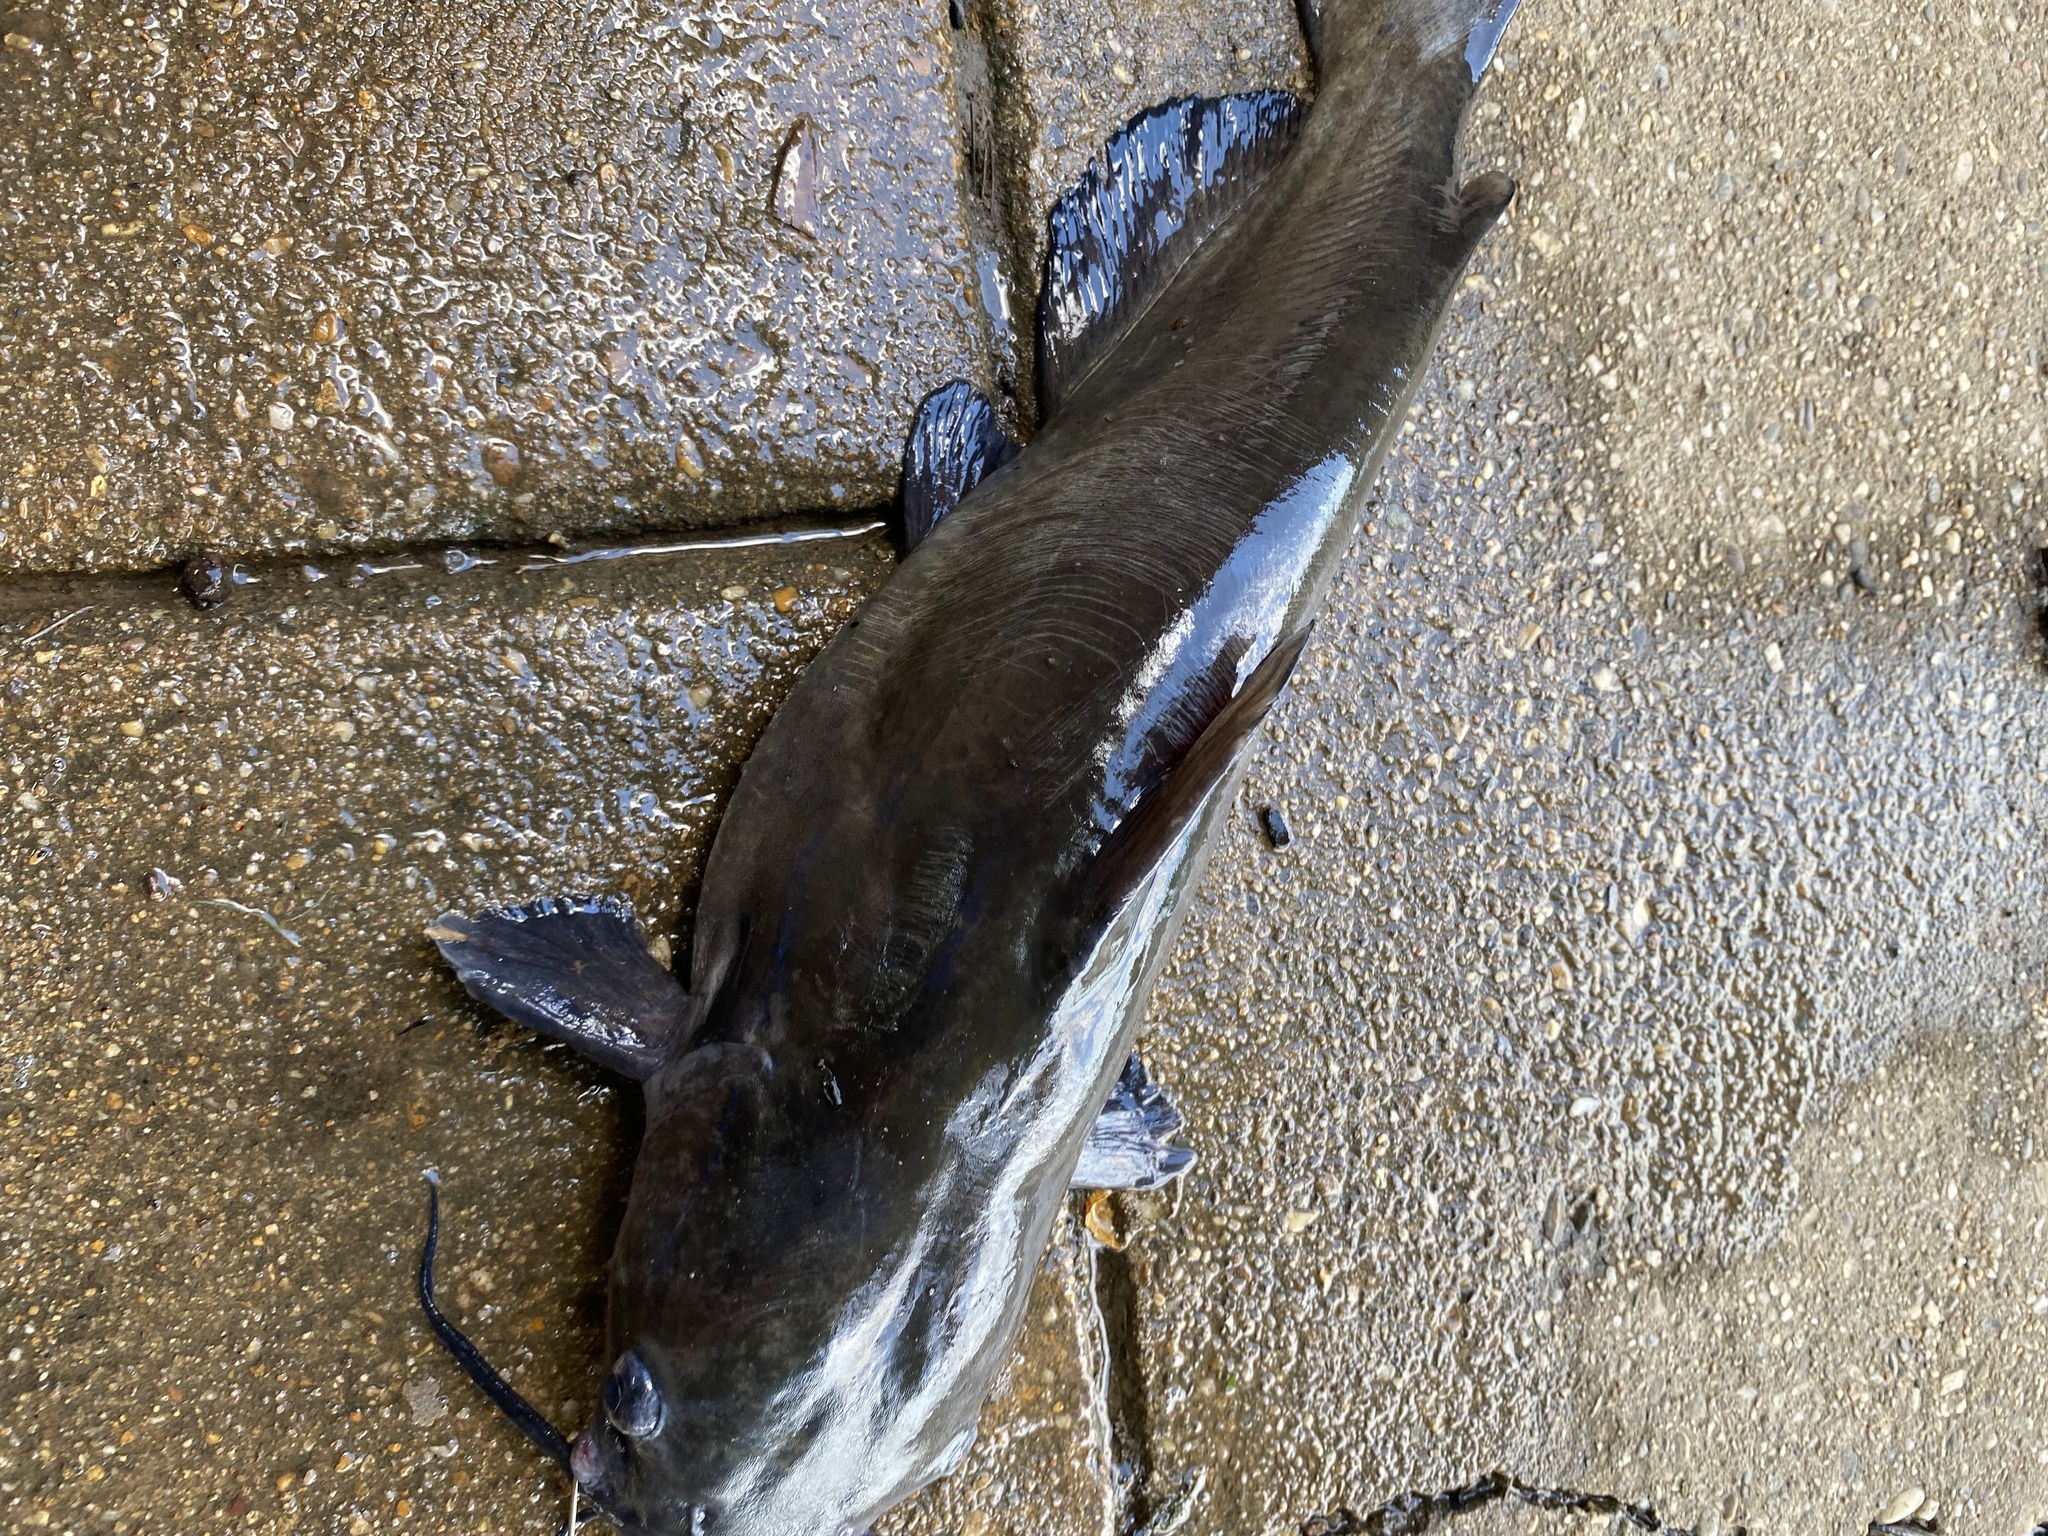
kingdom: Animalia
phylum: Chordata
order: Siluriformes
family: Ictaluridae
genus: Ictalurus
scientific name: Ictalurus punctatus
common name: Channel catfish
